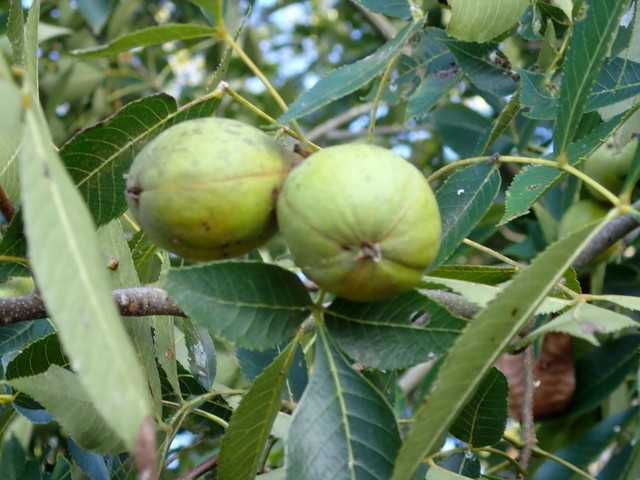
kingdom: Plantae
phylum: Tracheophyta
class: Magnoliopsida
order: Fagales
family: Juglandaceae
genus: Carya
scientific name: Carya glabra
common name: Pignut hickory
